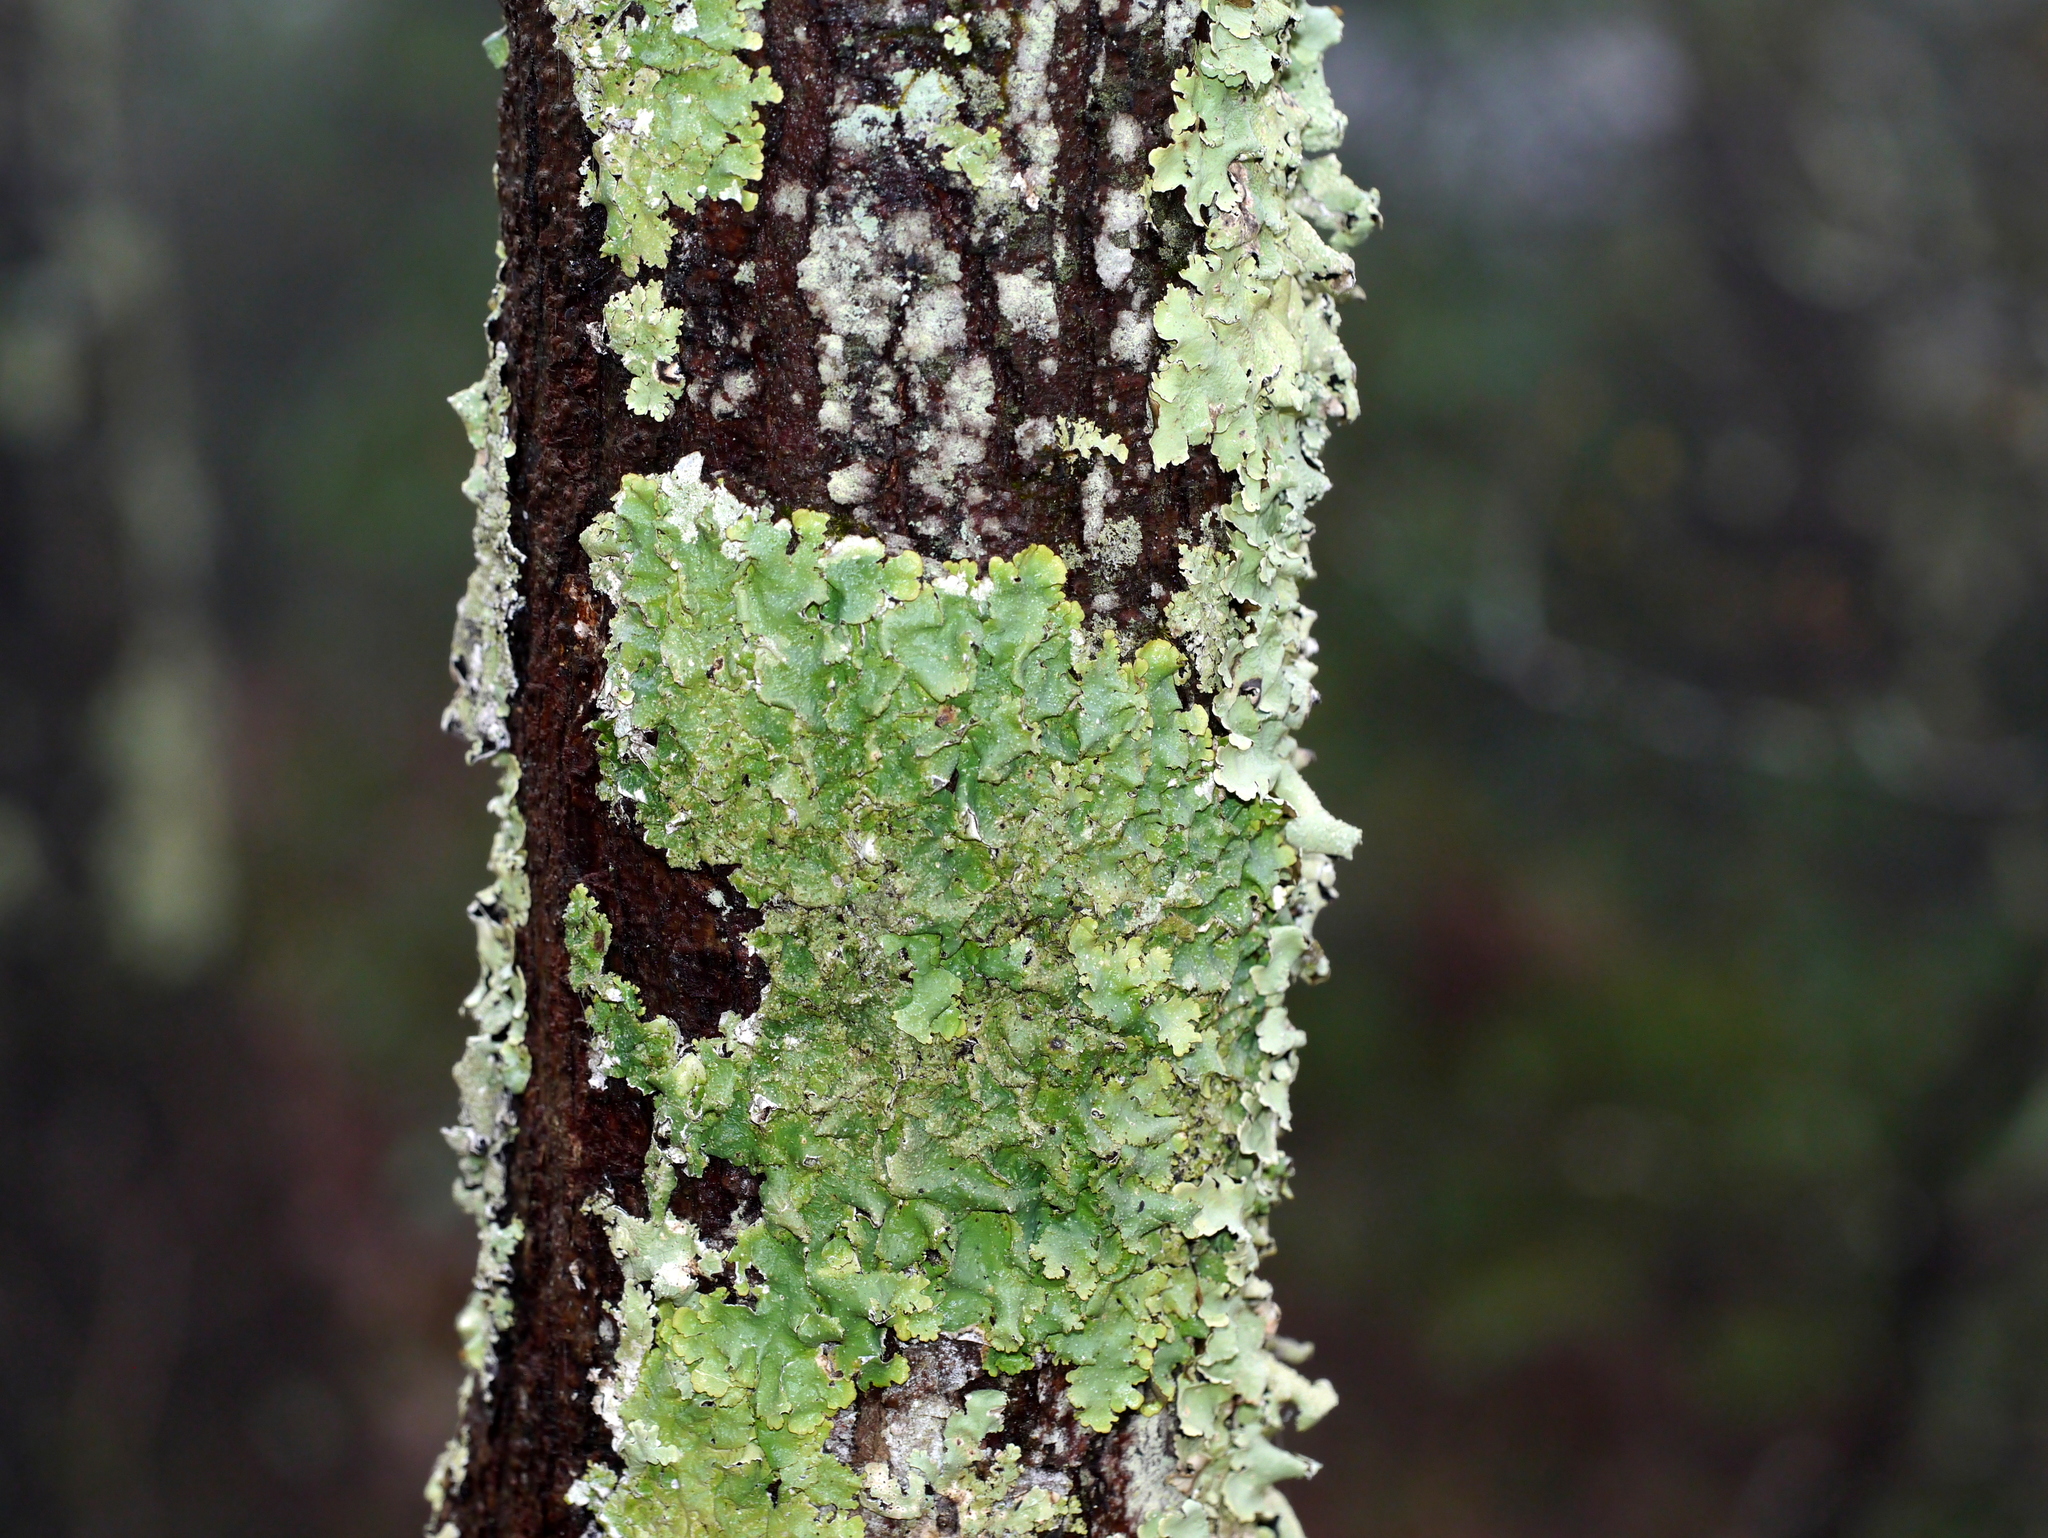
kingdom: Fungi
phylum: Ascomycota
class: Lecanoromycetes
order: Lecanorales
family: Parmeliaceae
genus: Flavoparmelia
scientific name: Flavoparmelia caperata
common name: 40-mile per hour lichen
